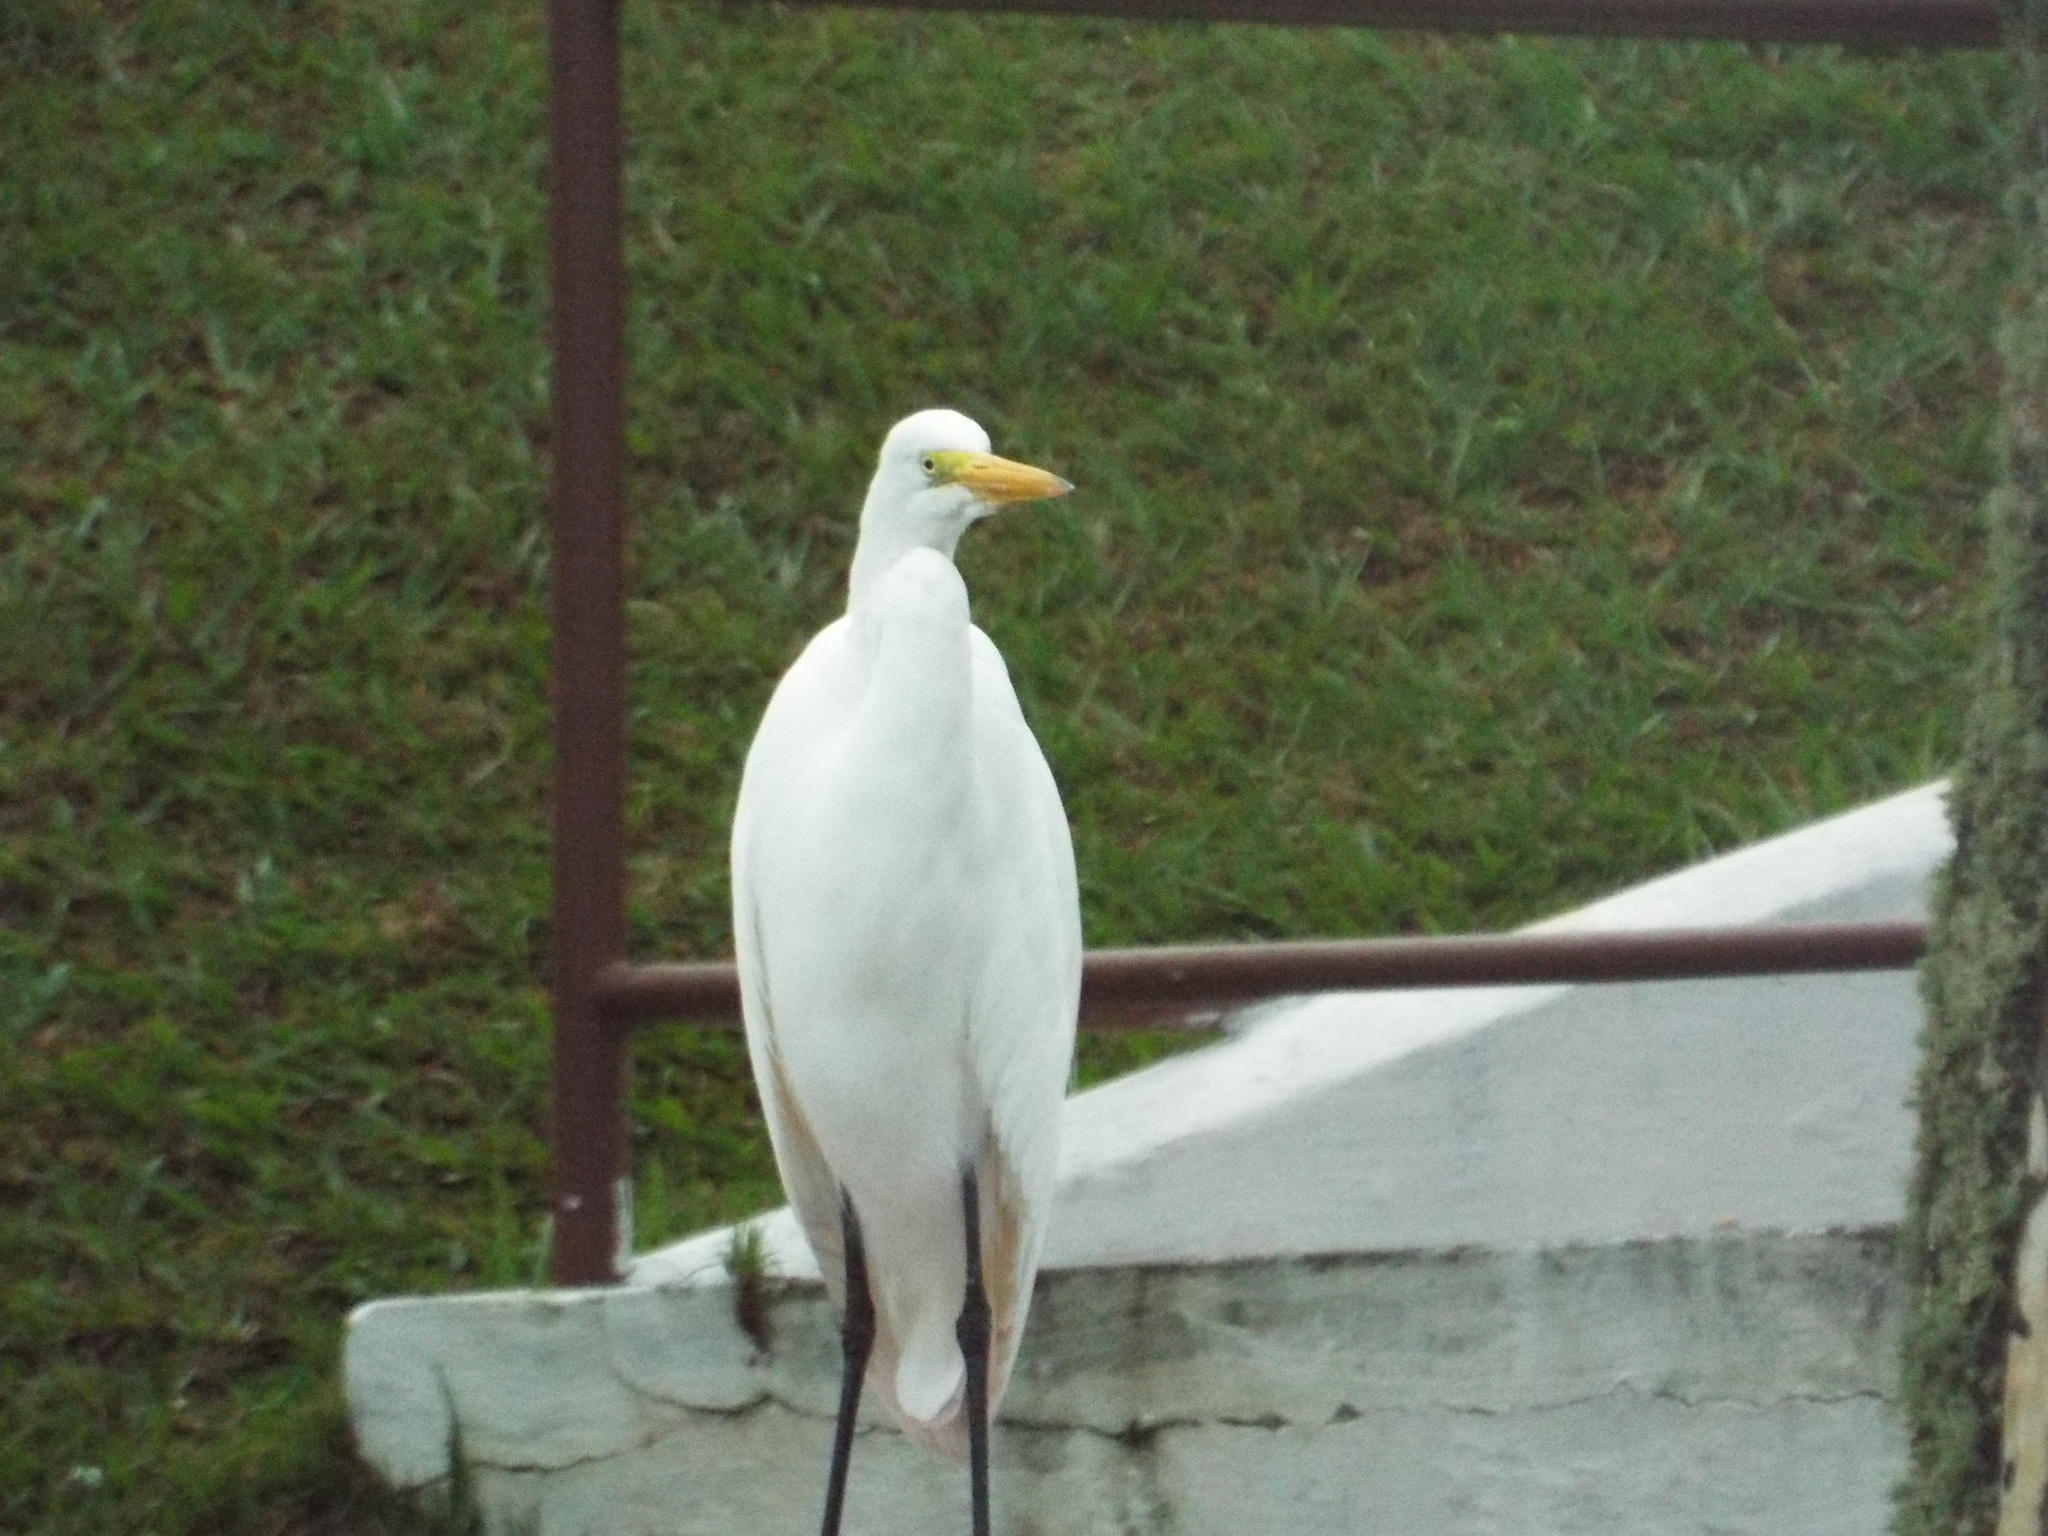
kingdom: Animalia
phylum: Chordata
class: Aves
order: Pelecaniformes
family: Ardeidae
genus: Ardea
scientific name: Ardea alba
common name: Great egret
